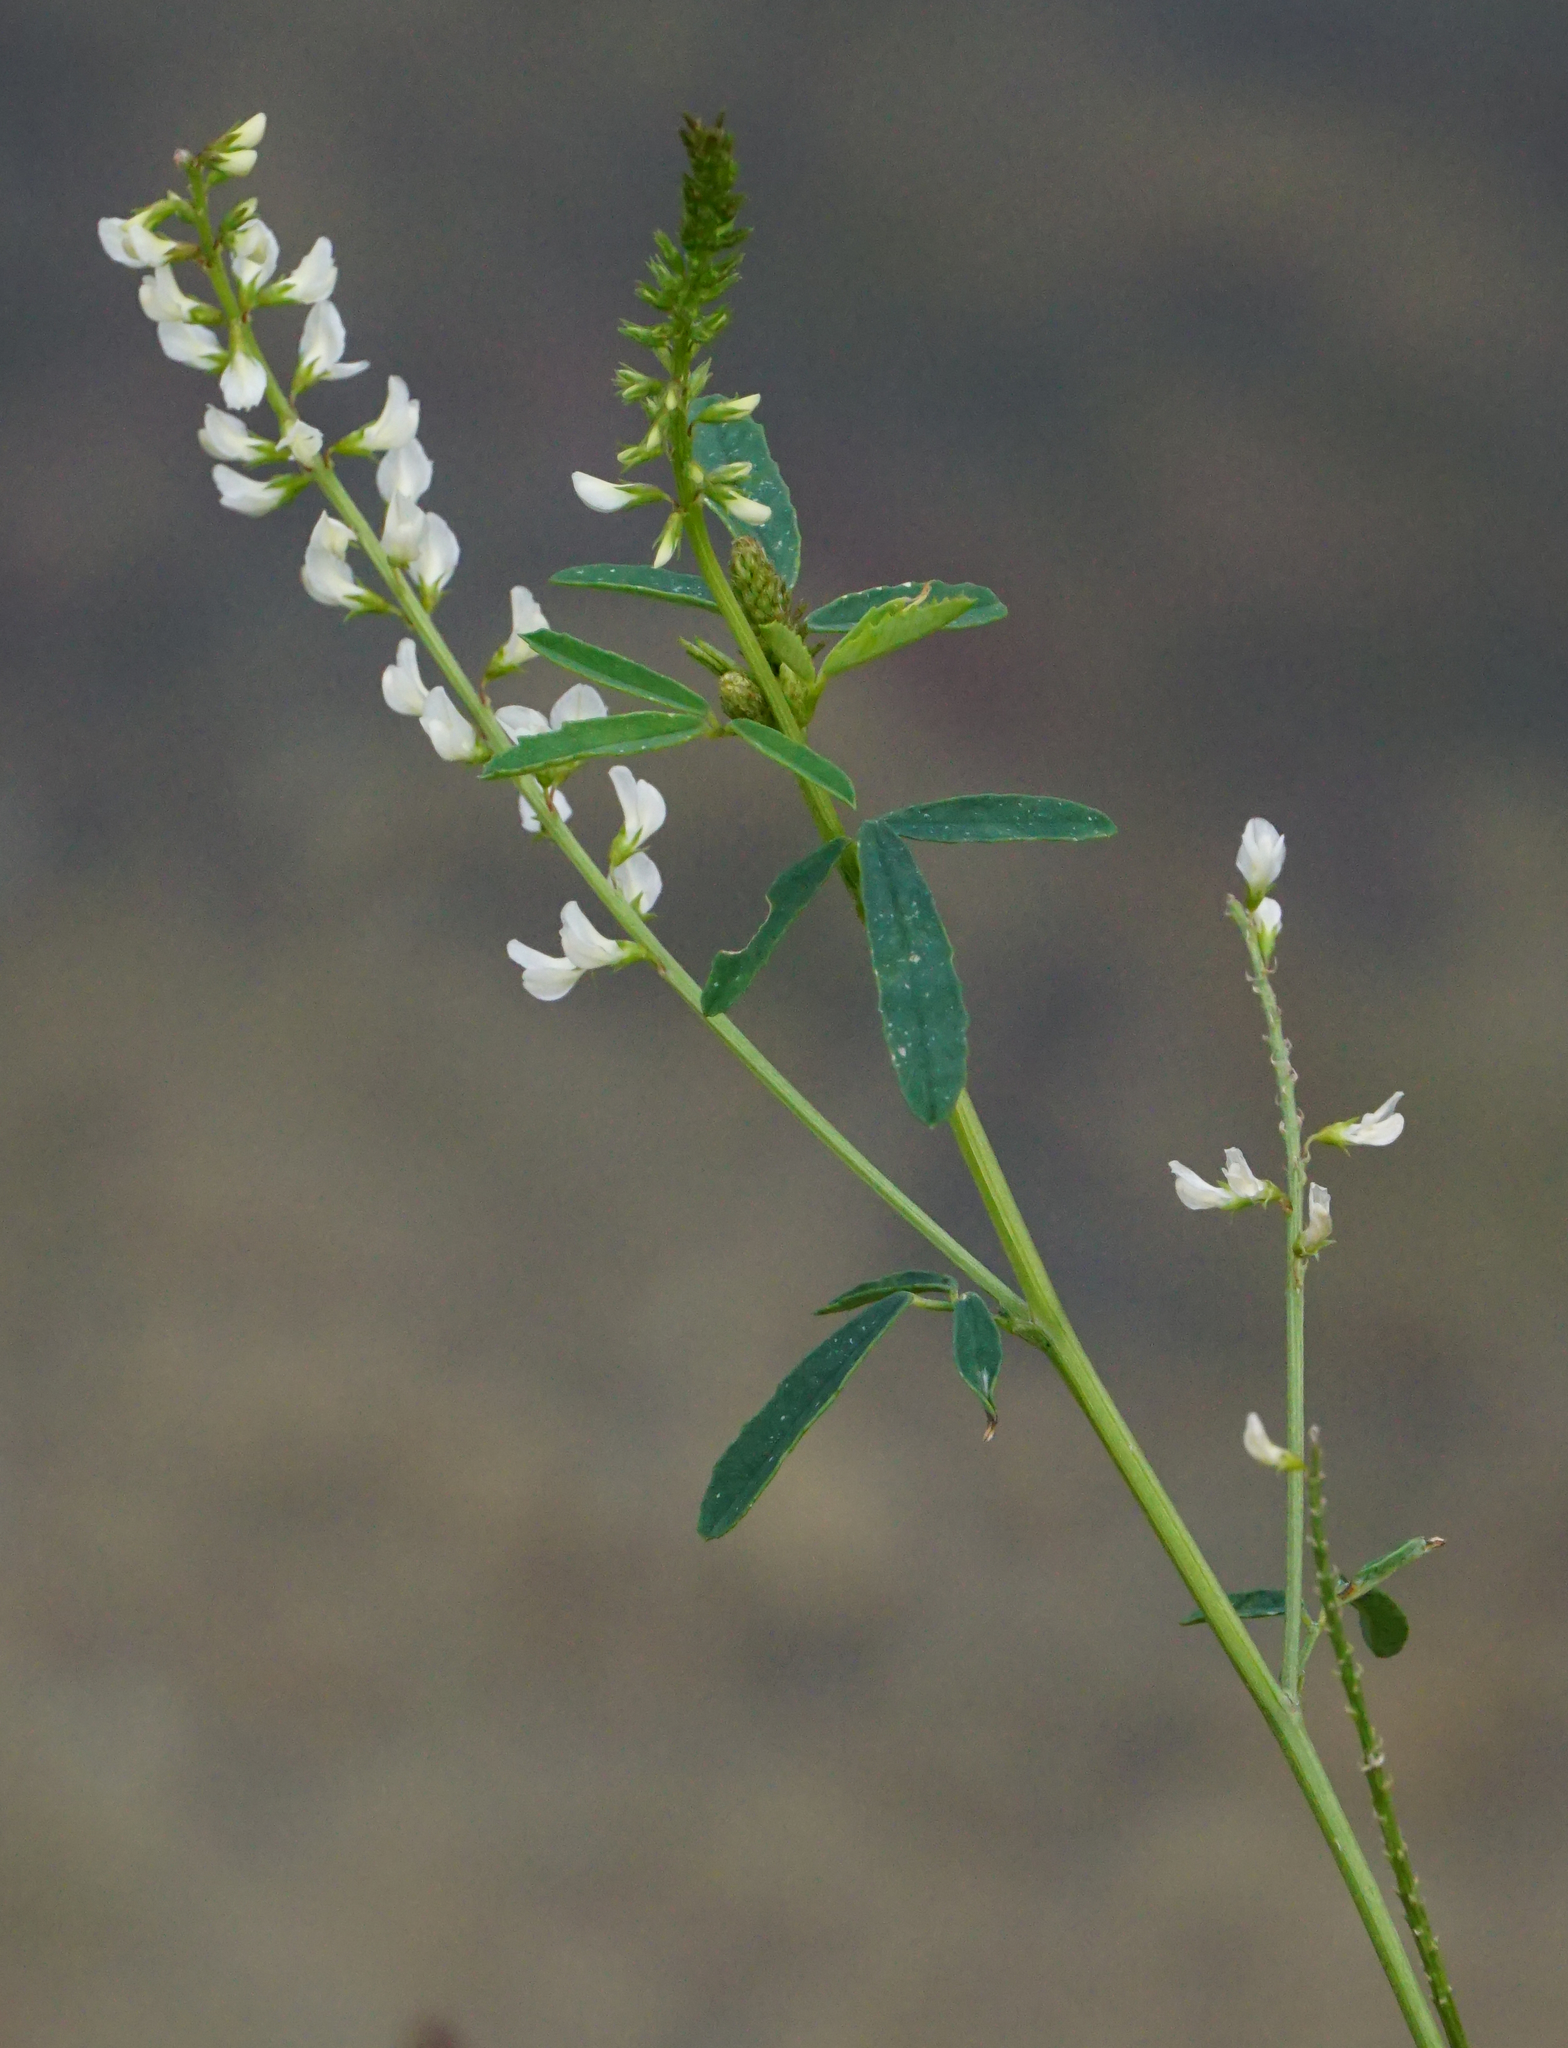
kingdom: Plantae
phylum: Tracheophyta
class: Magnoliopsida
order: Fabales
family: Fabaceae
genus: Melilotus
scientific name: Melilotus albus
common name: White melilot
